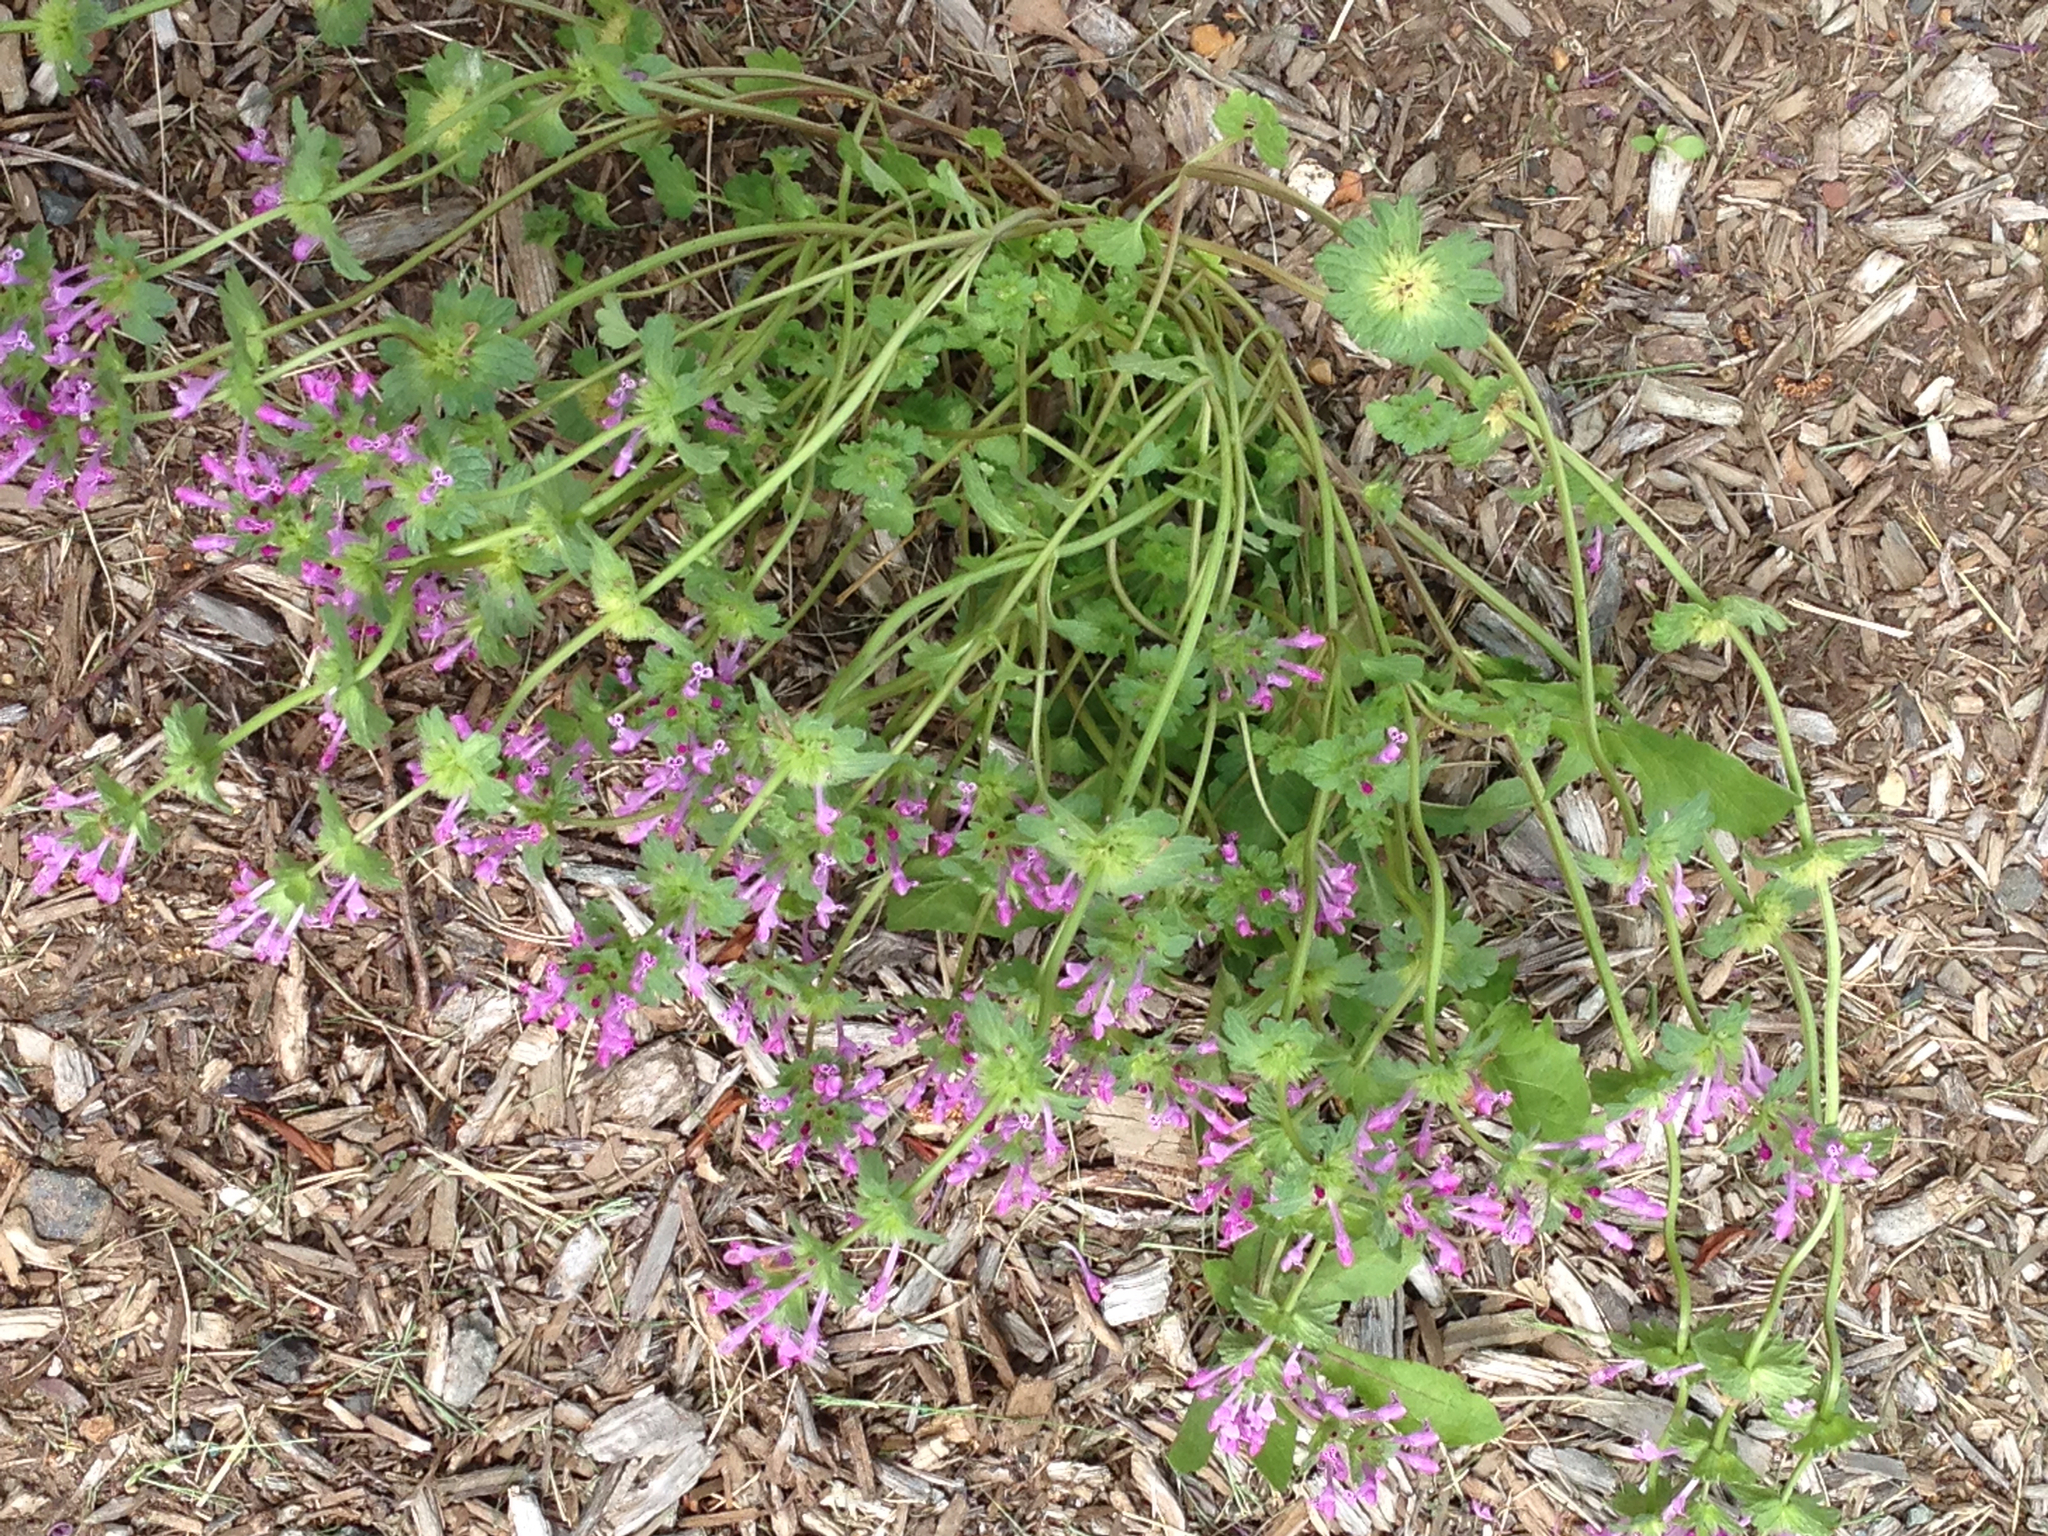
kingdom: Plantae
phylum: Tracheophyta
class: Magnoliopsida
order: Lamiales
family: Lamiaceae
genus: Lamium
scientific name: Lamium amplexicaule
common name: Henbit dead-nettle
